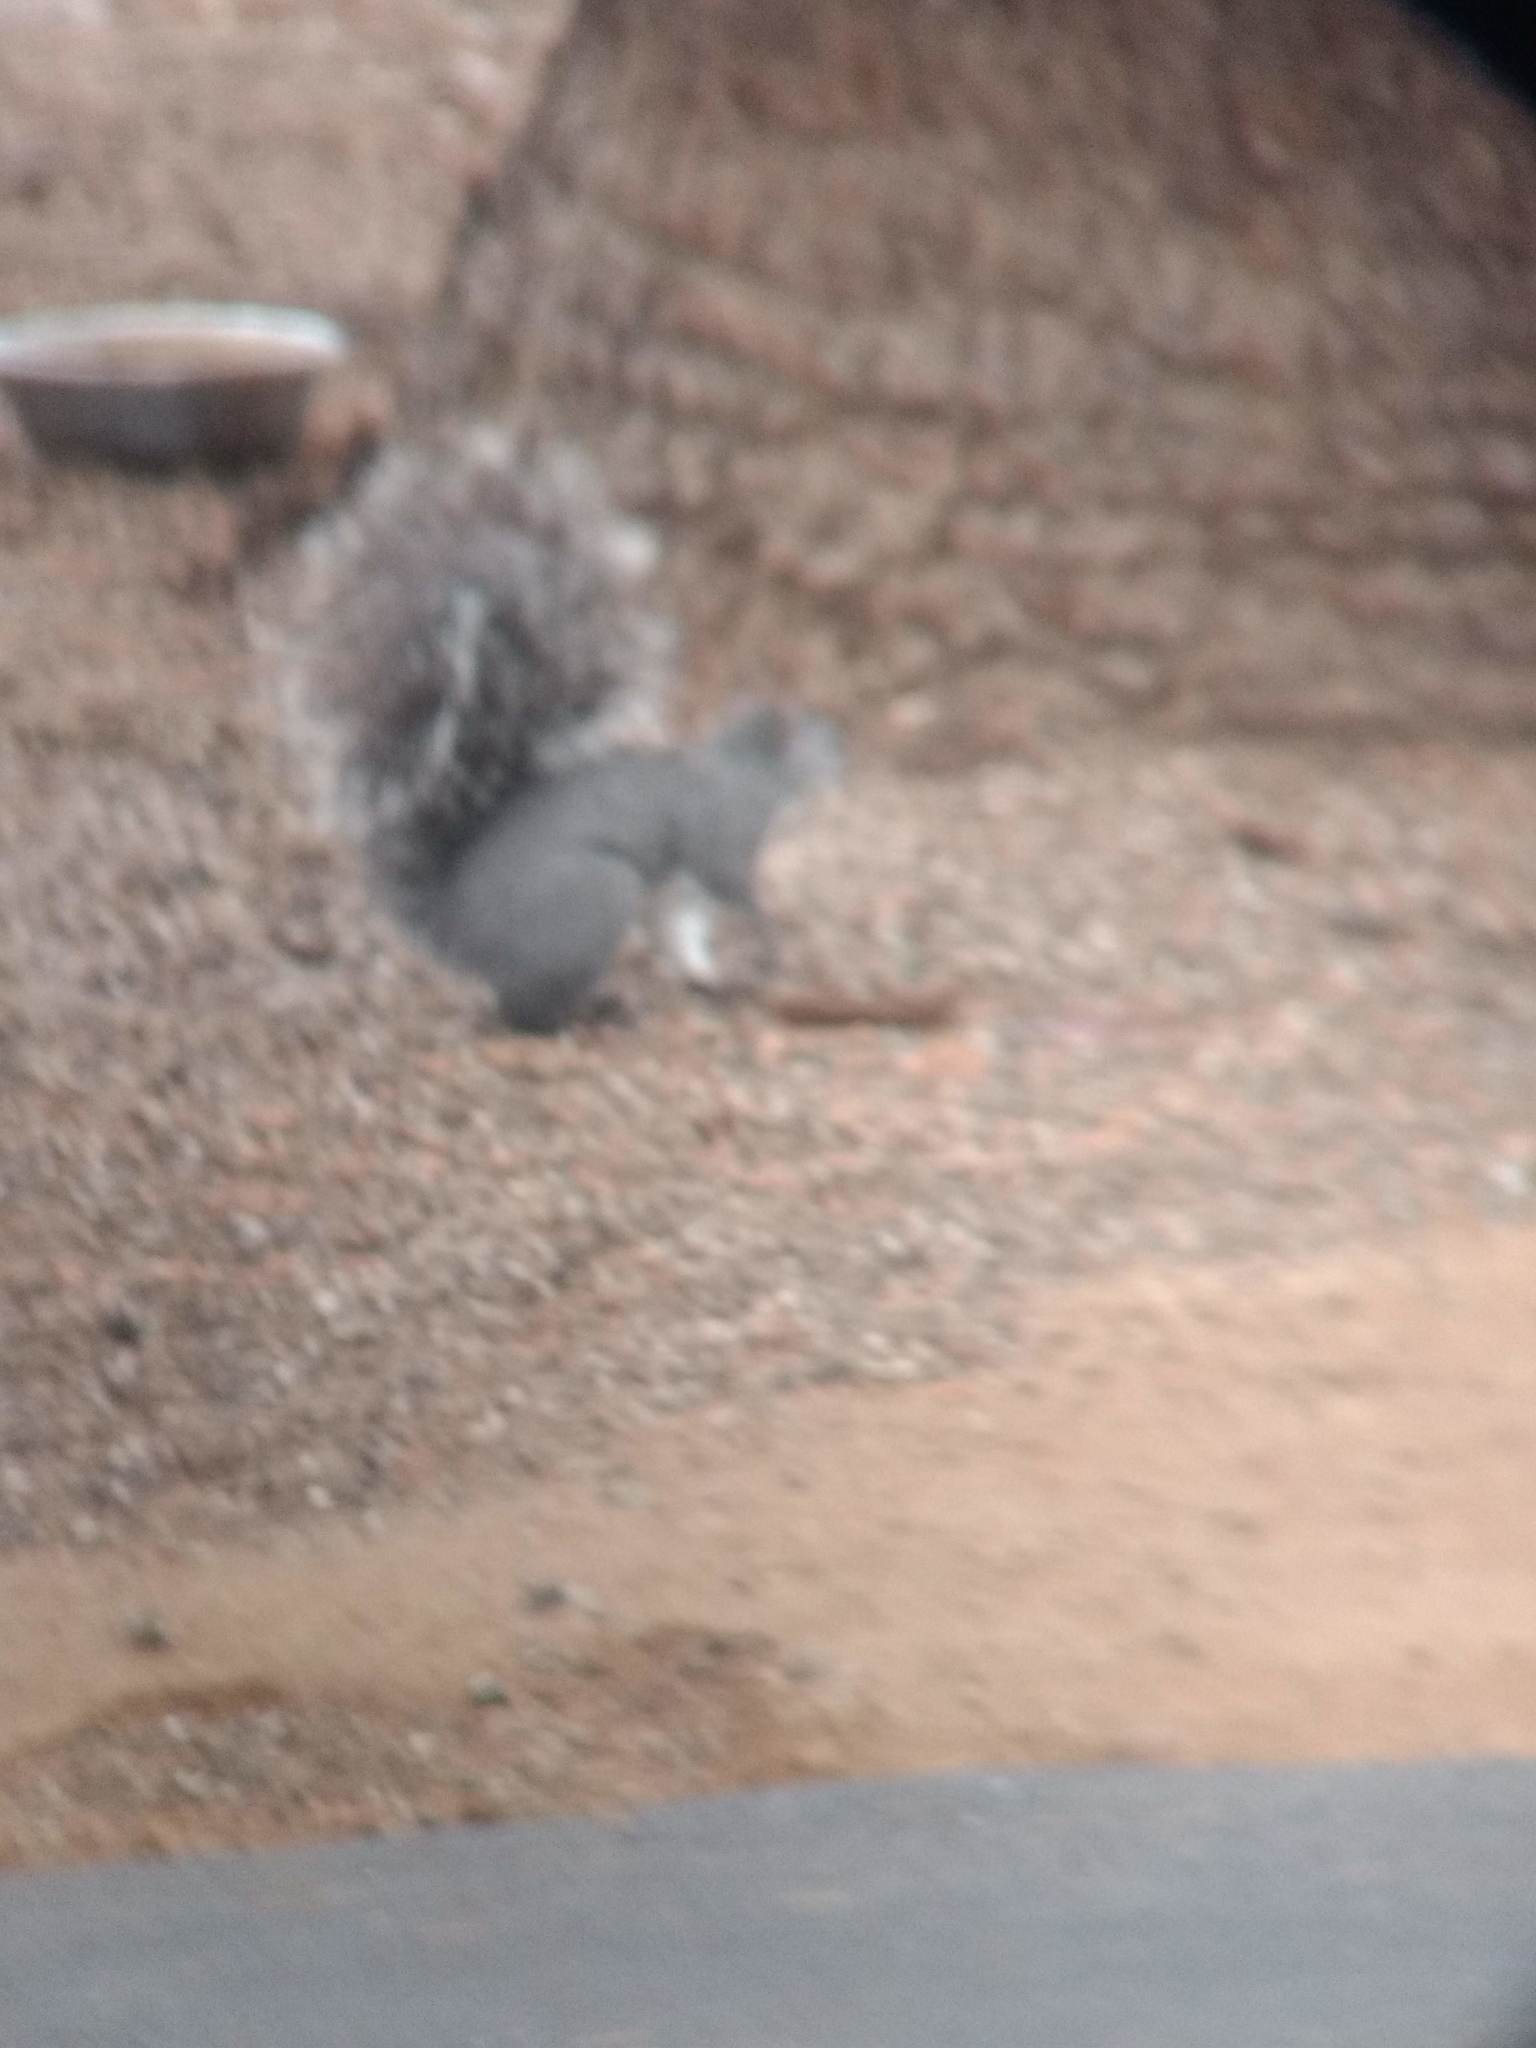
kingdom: Animalia
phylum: Chordata
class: Mammalia
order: Rodentia
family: Sciuridae
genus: Sciurus
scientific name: Sciurus griseus
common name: Western gray squirrel
